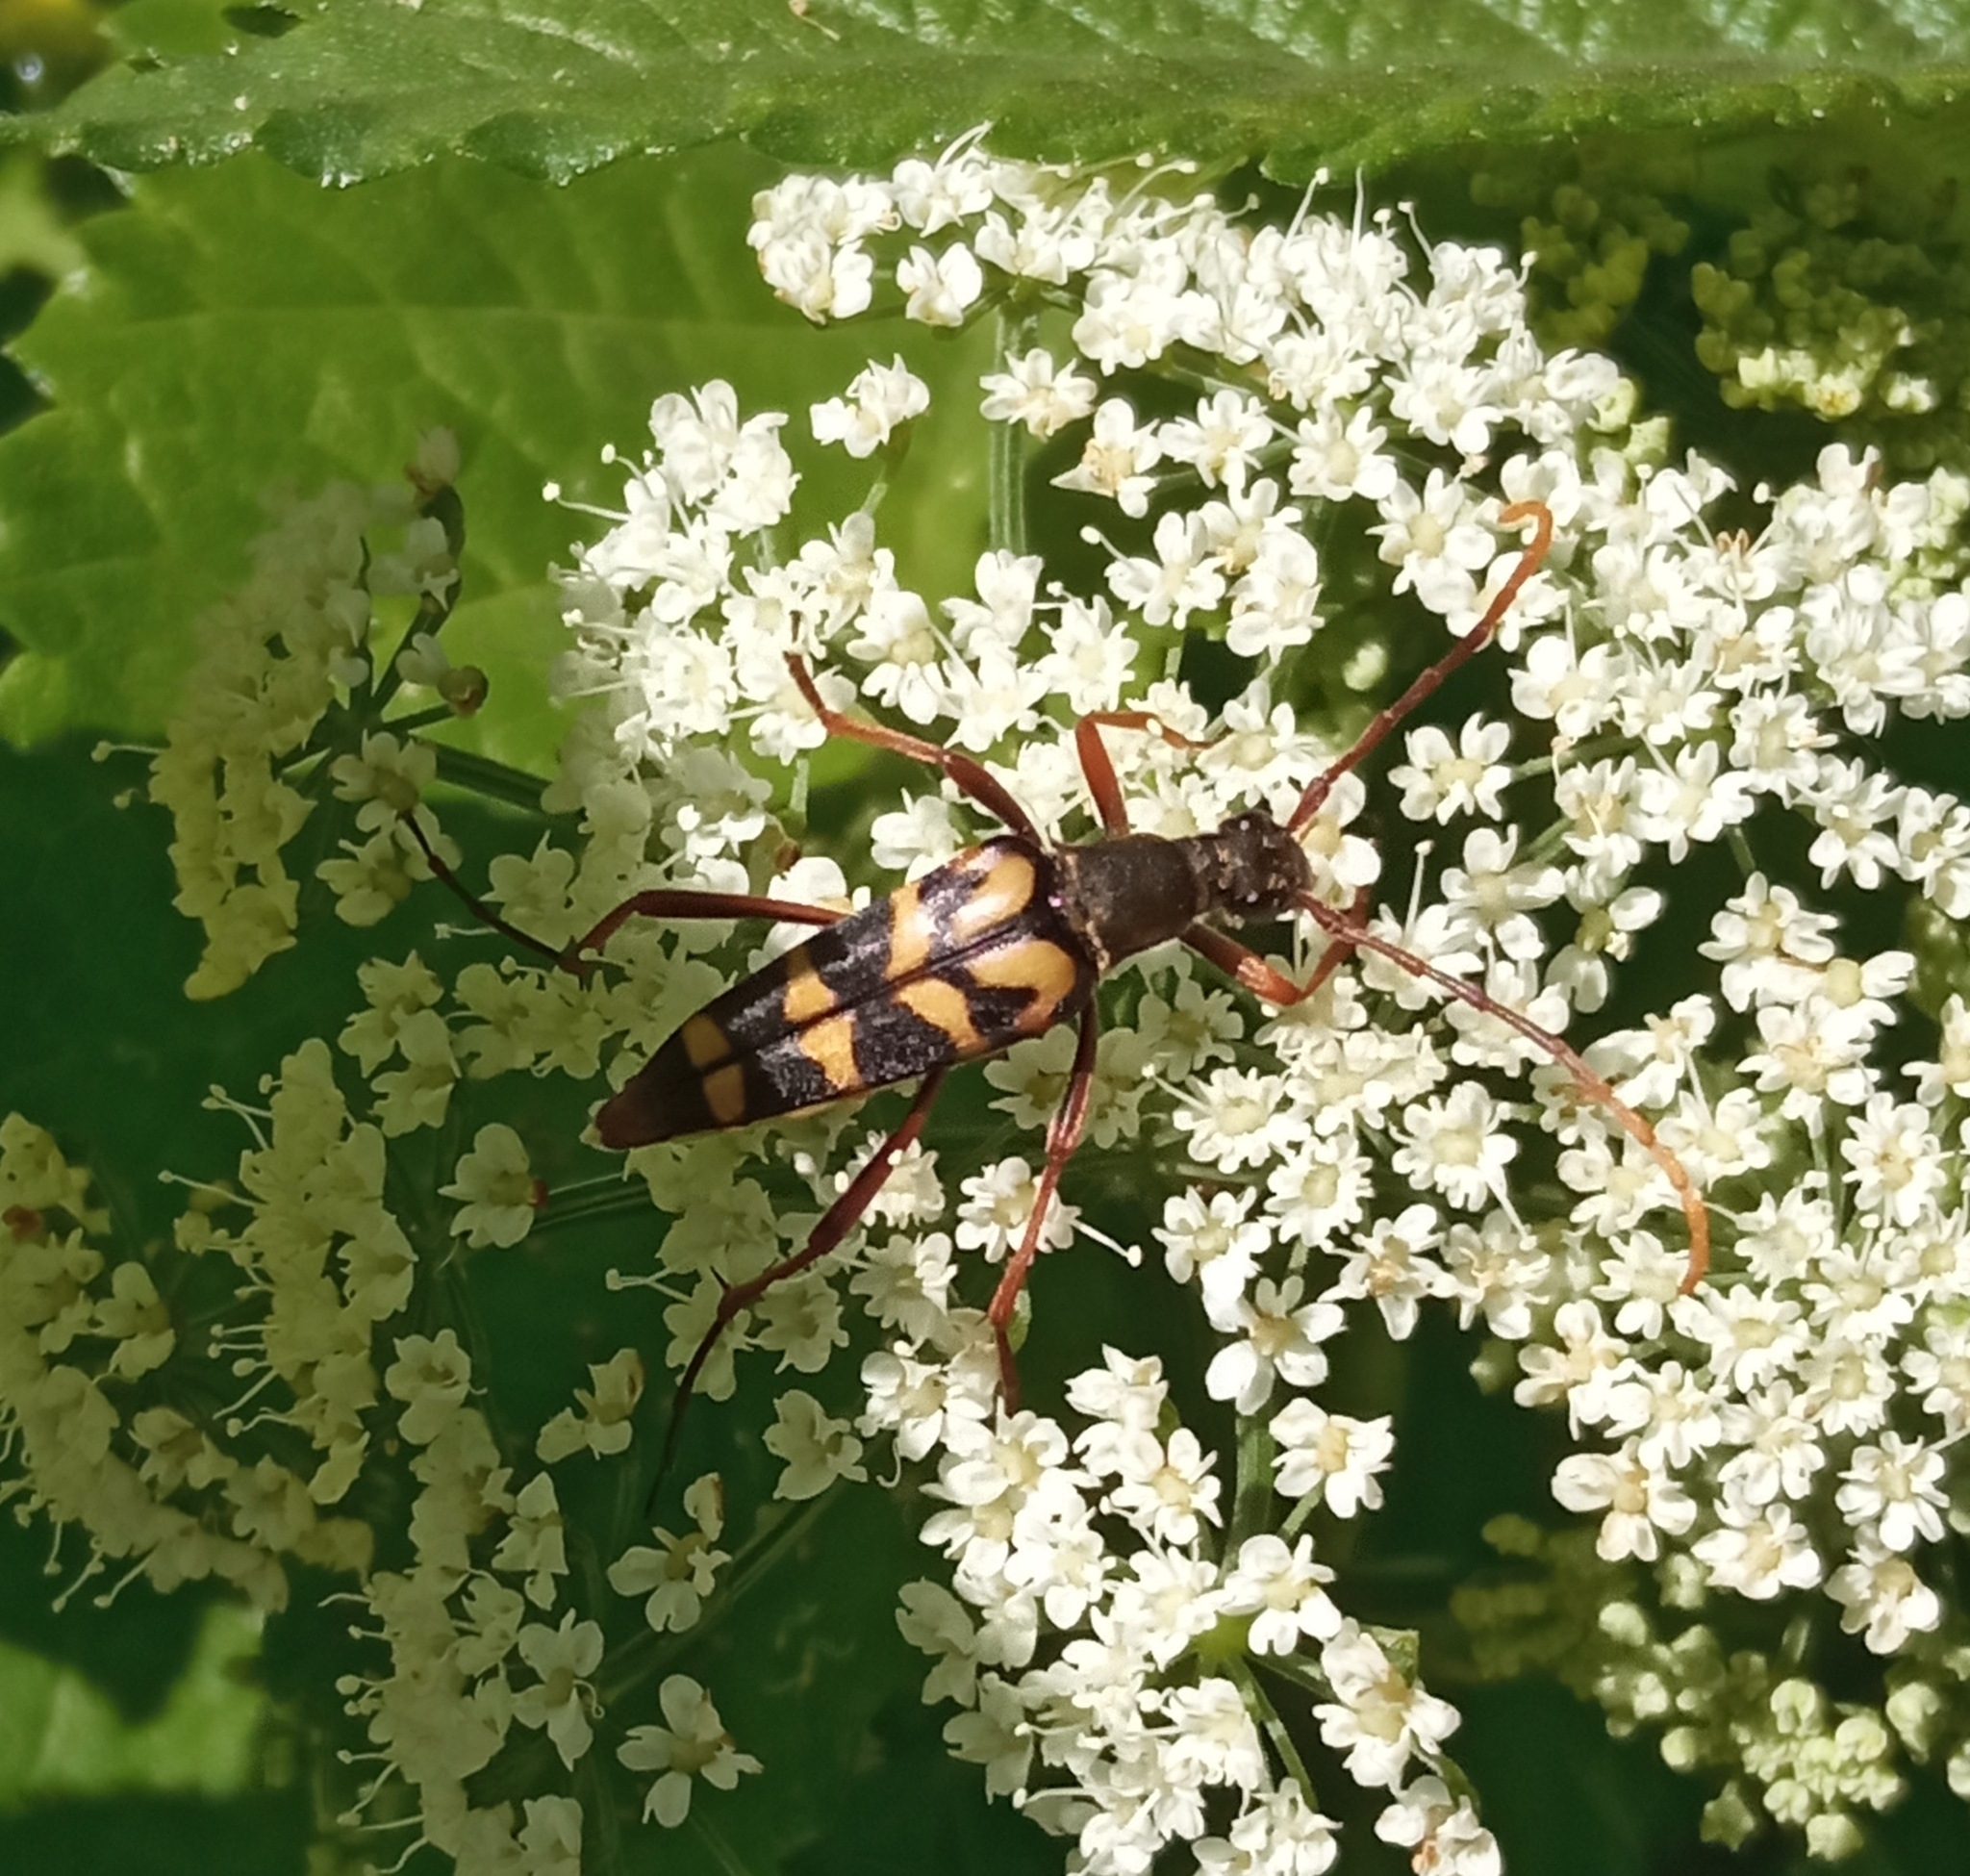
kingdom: Animalia
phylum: Arthropoda
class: Insecta
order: Coleoptera
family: Cerambycidae
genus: Leptura
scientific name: Leptura annularis
